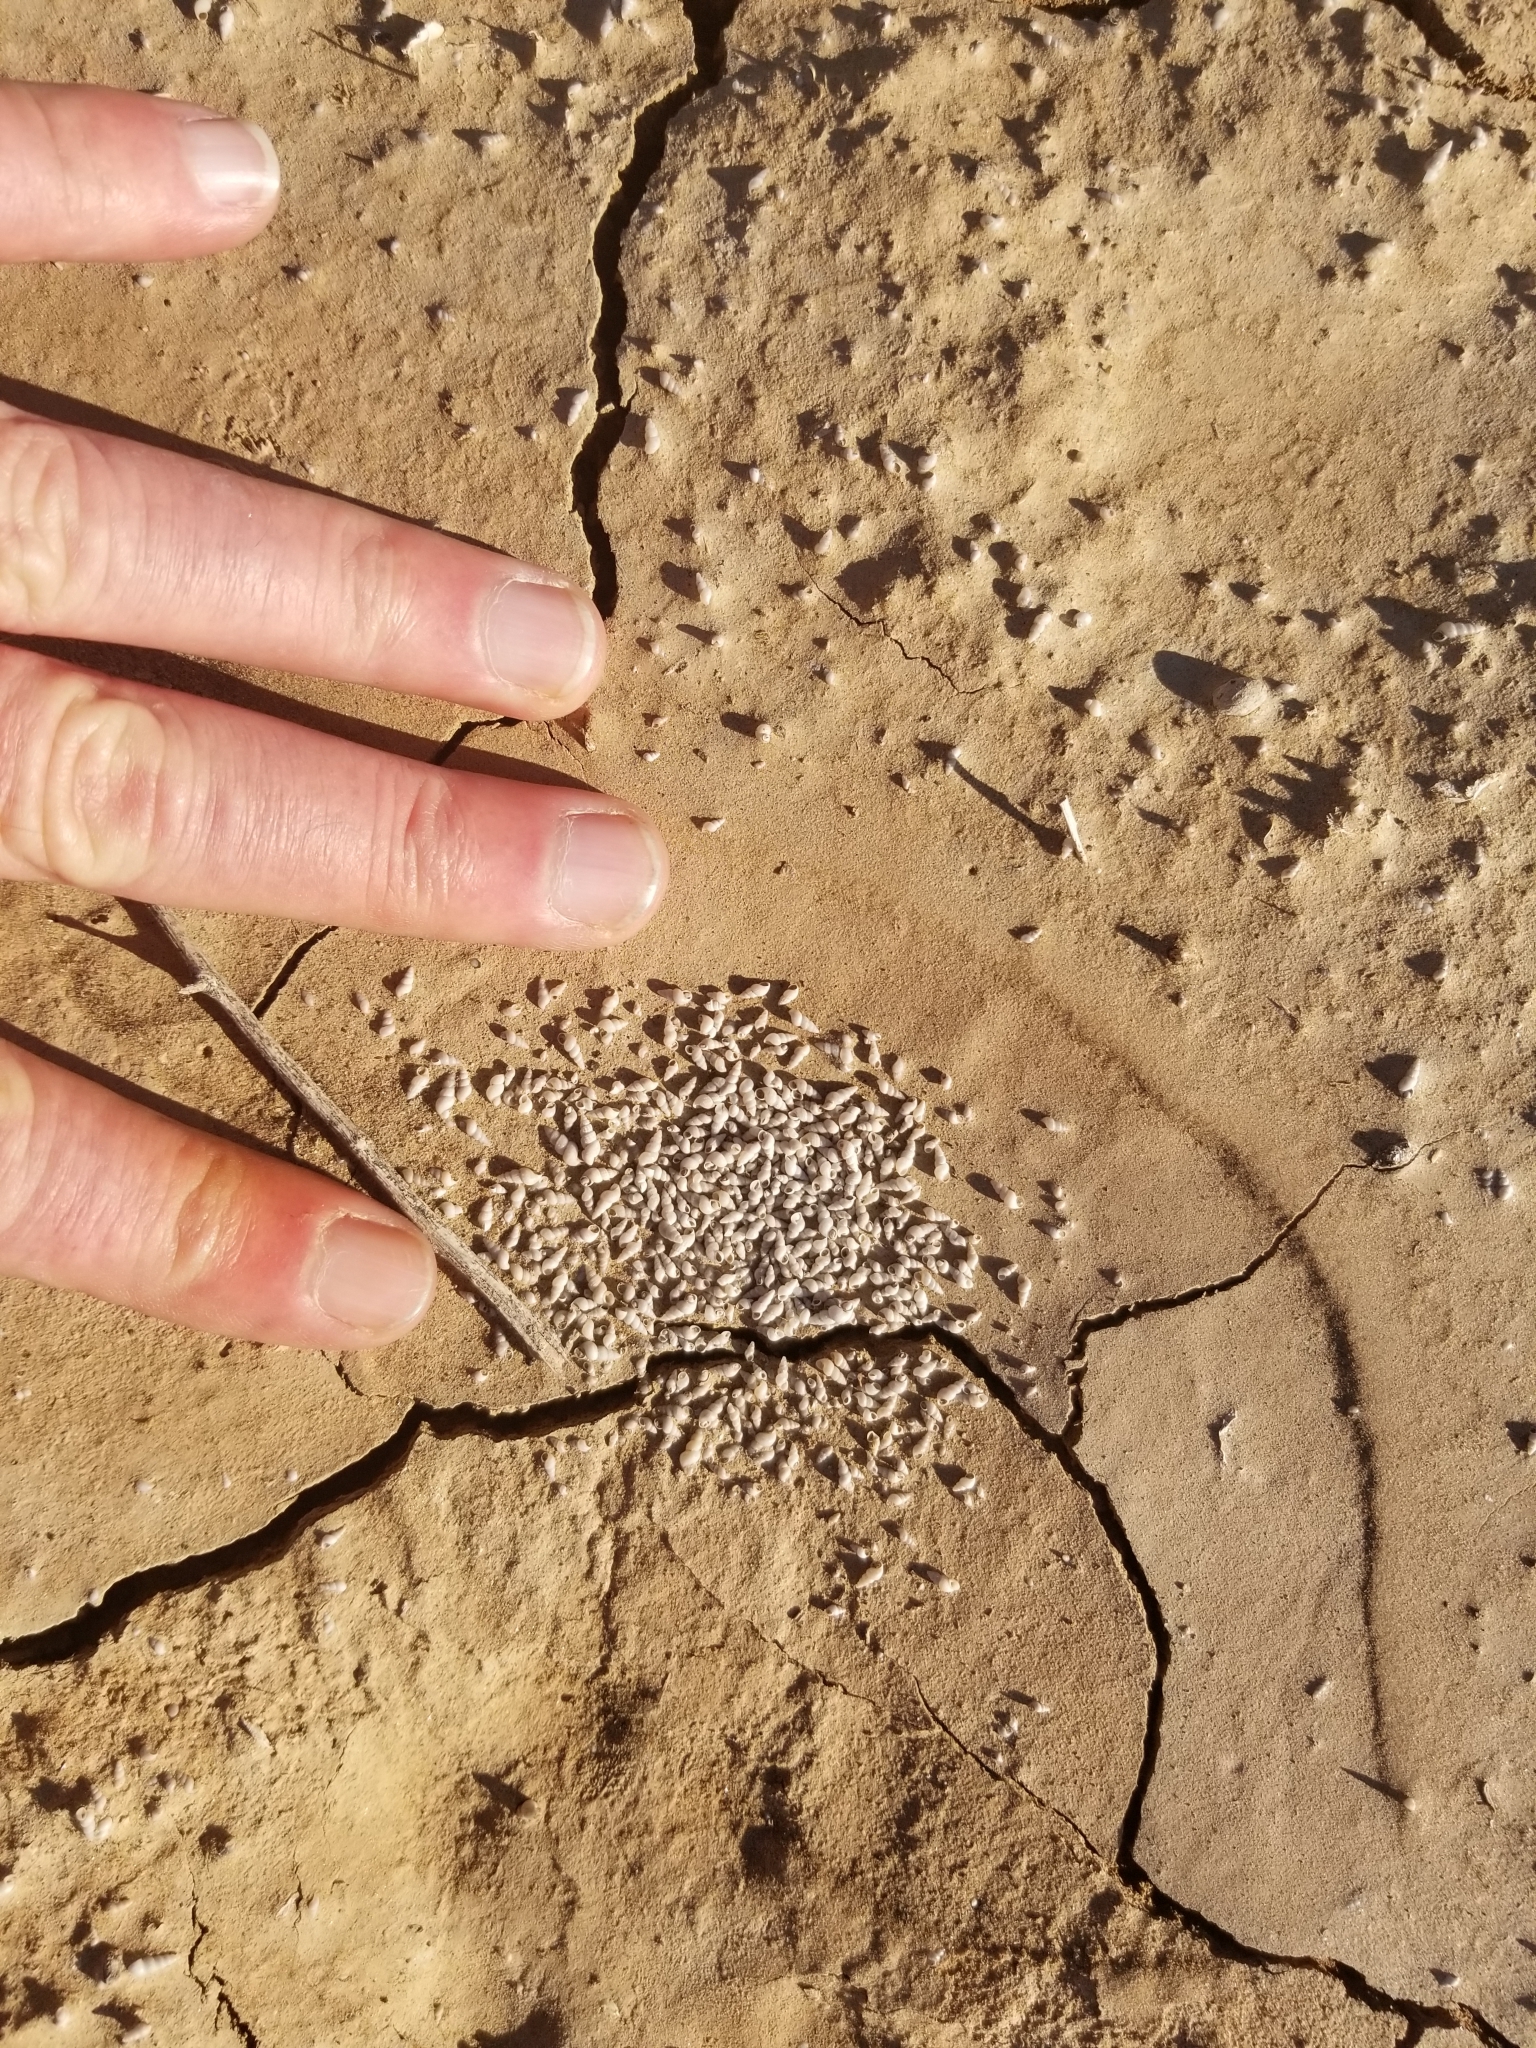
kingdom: Animalia
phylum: Mollusca
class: Gastropoda
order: Littorinimorpha
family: Cochliopidae
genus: Tryonia
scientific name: Tryonia porrecta
